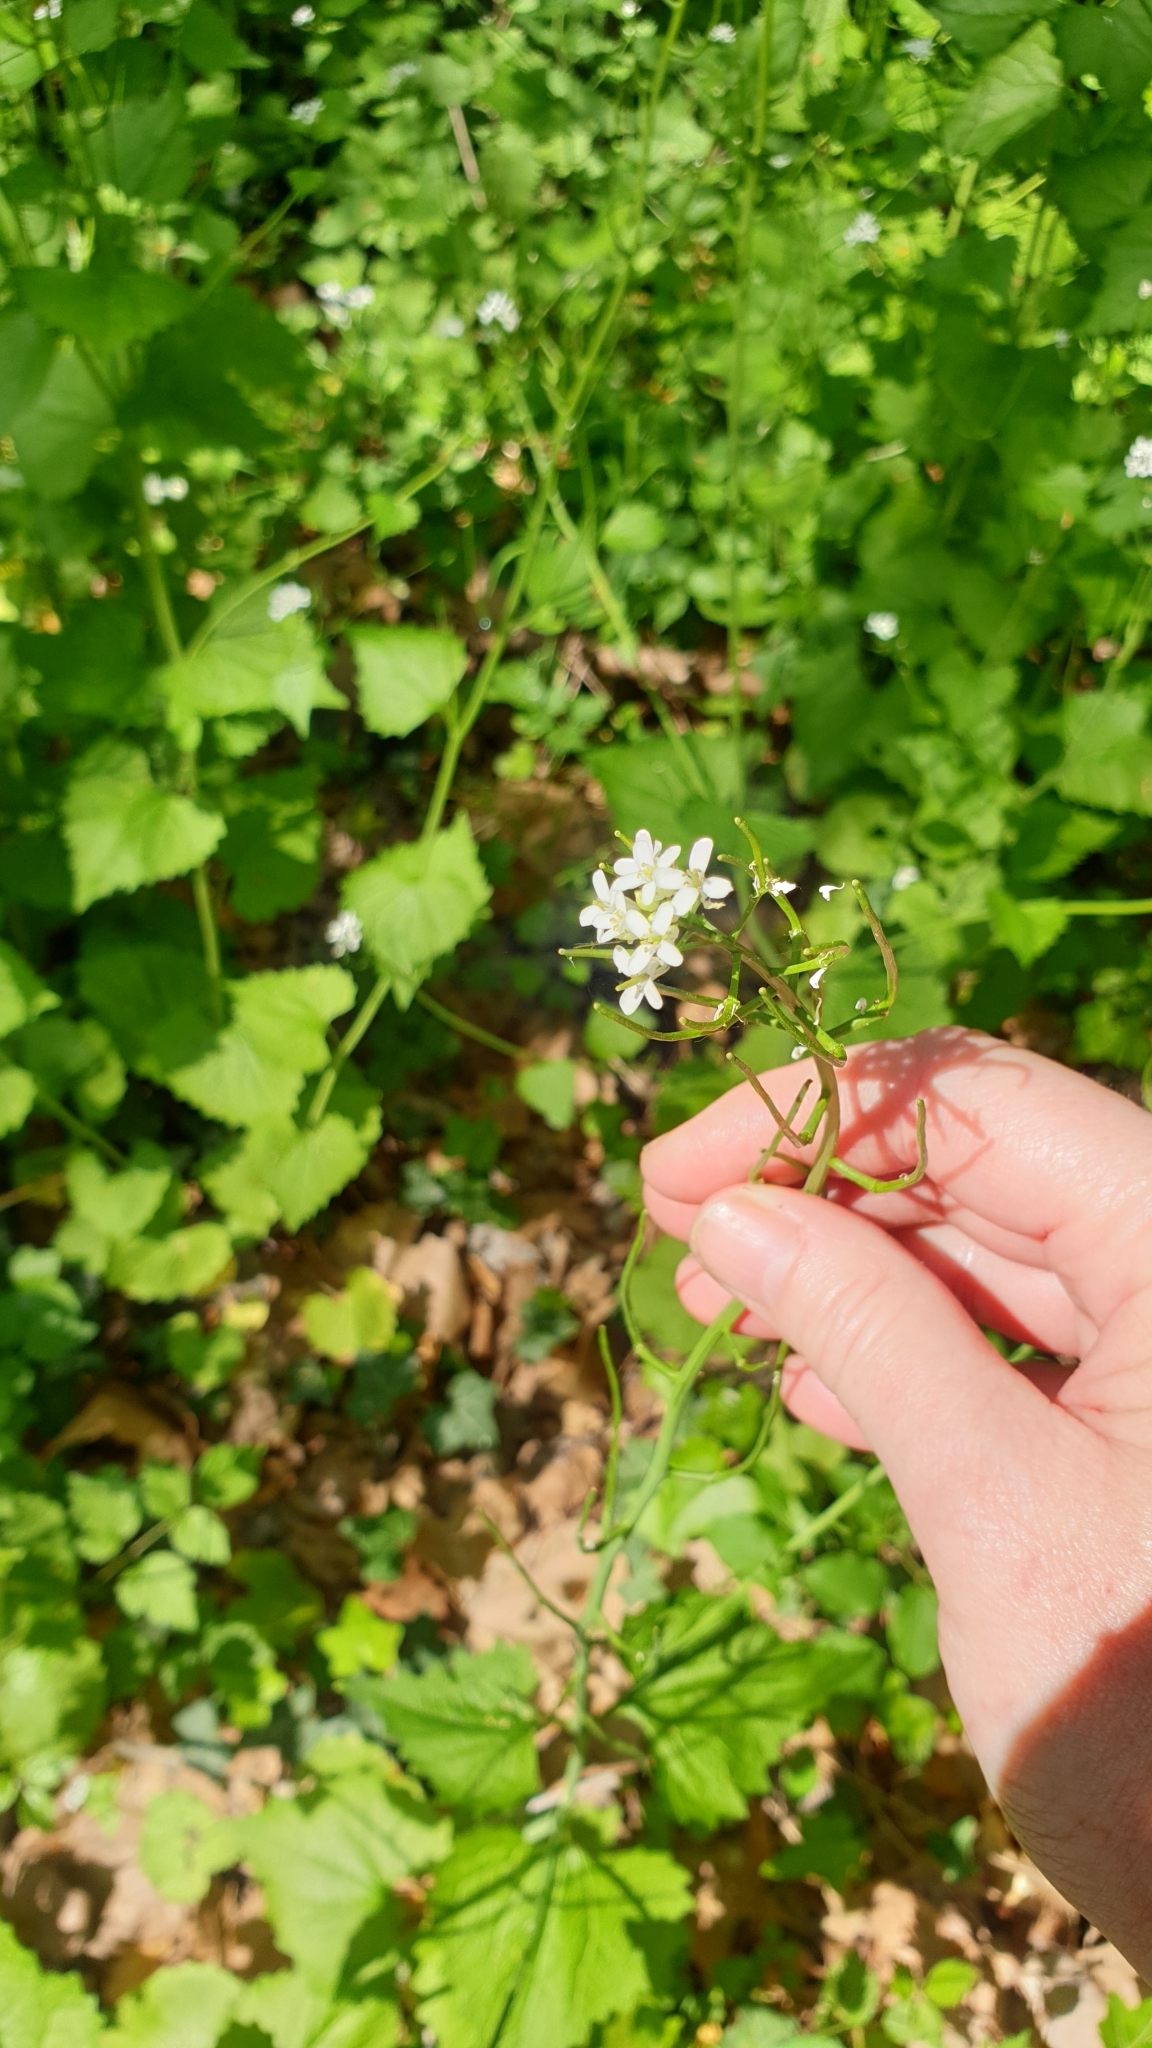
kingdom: Plantae
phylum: Tracheophyta
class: Magnoliopsida
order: Brassicales
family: Brassicaceae
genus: Alliaria
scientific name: Alliaria petiolata
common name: Garlic mustard
